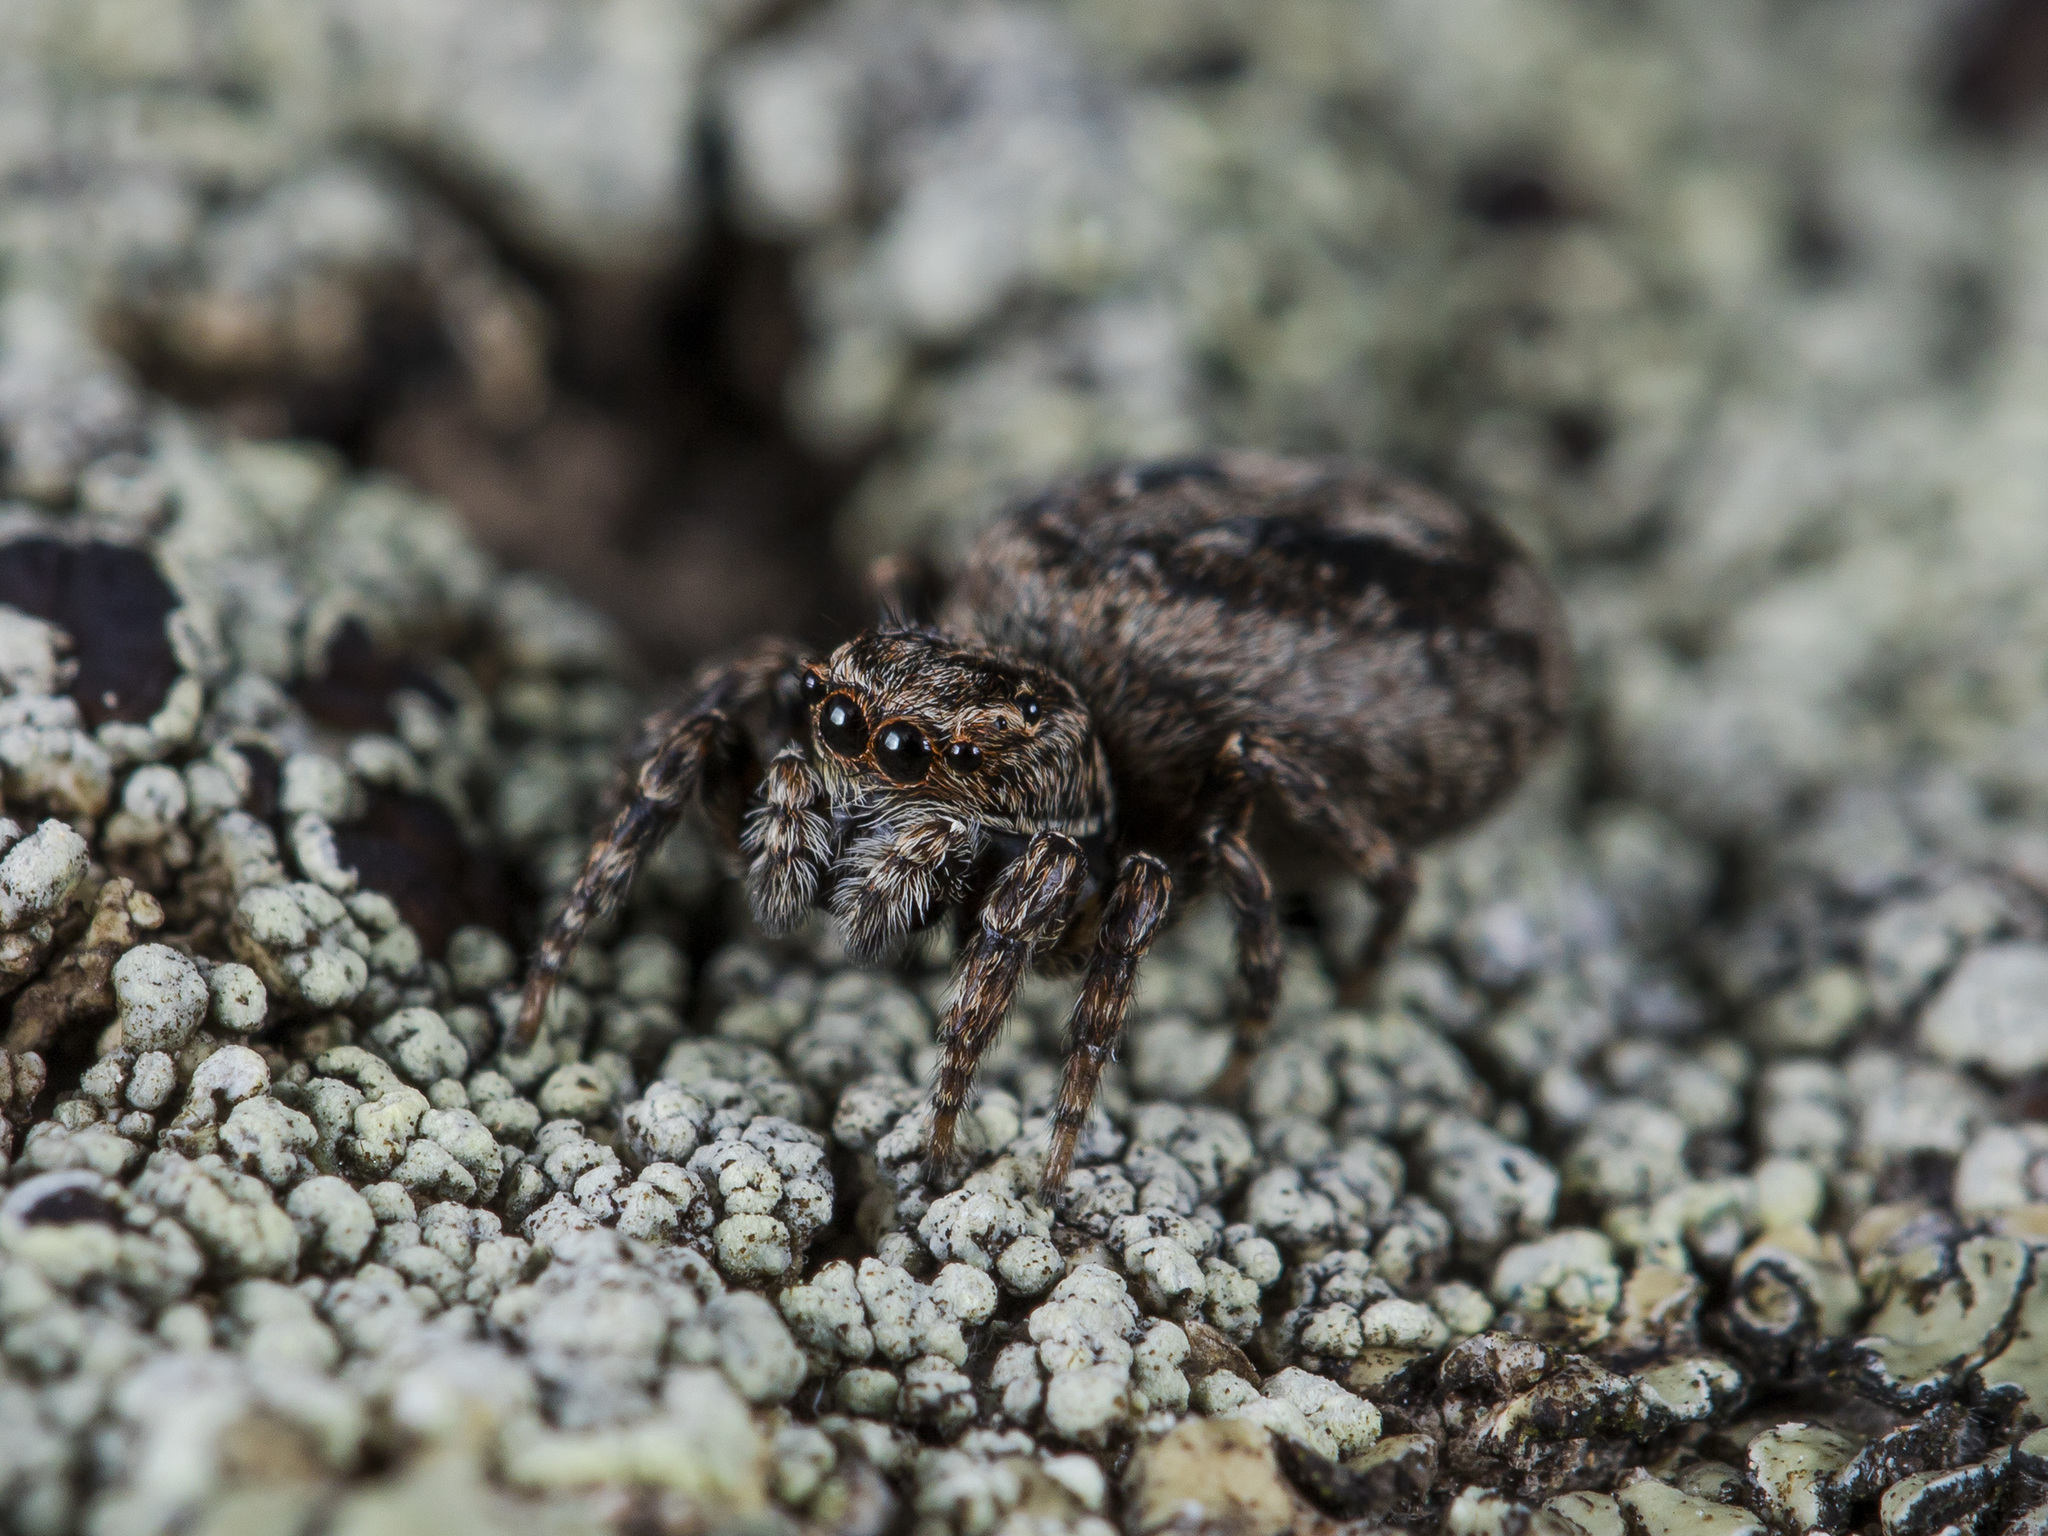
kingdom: Animalia
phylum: Arthropoda
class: Arachnida
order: Araneae
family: Salticidae
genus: Attulus
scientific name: Attulus monstrabilis
